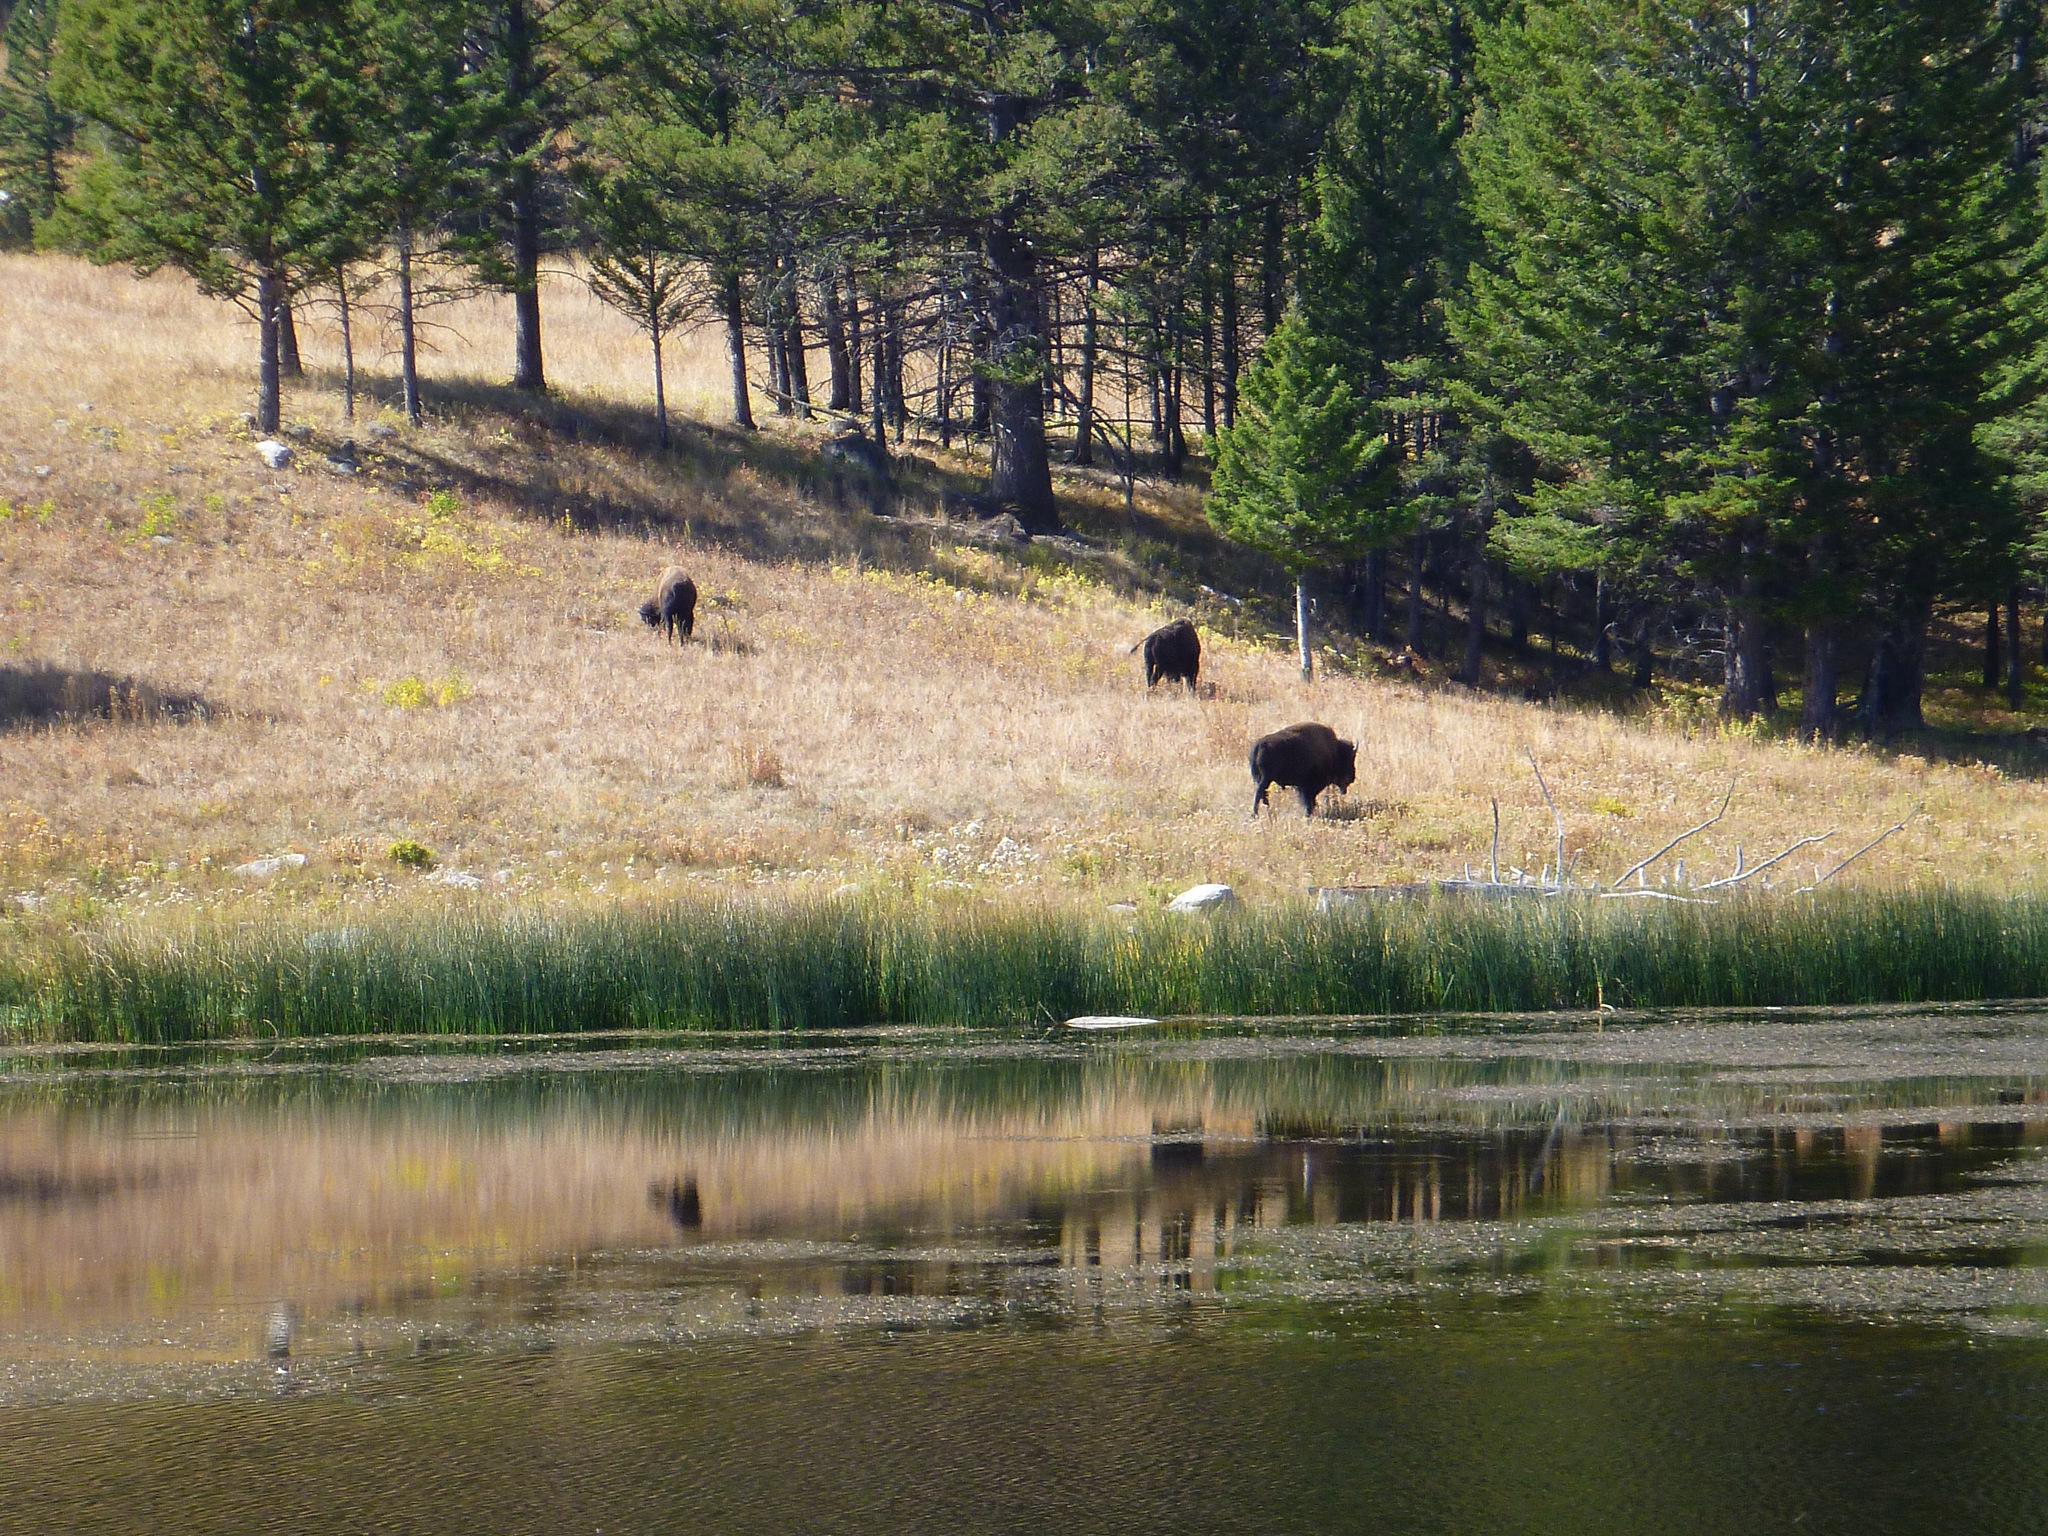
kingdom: Animalia
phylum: Chordata
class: Mammalia
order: Artiodactyla
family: Bovidae
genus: Bison
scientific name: Bison bison
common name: American bison
